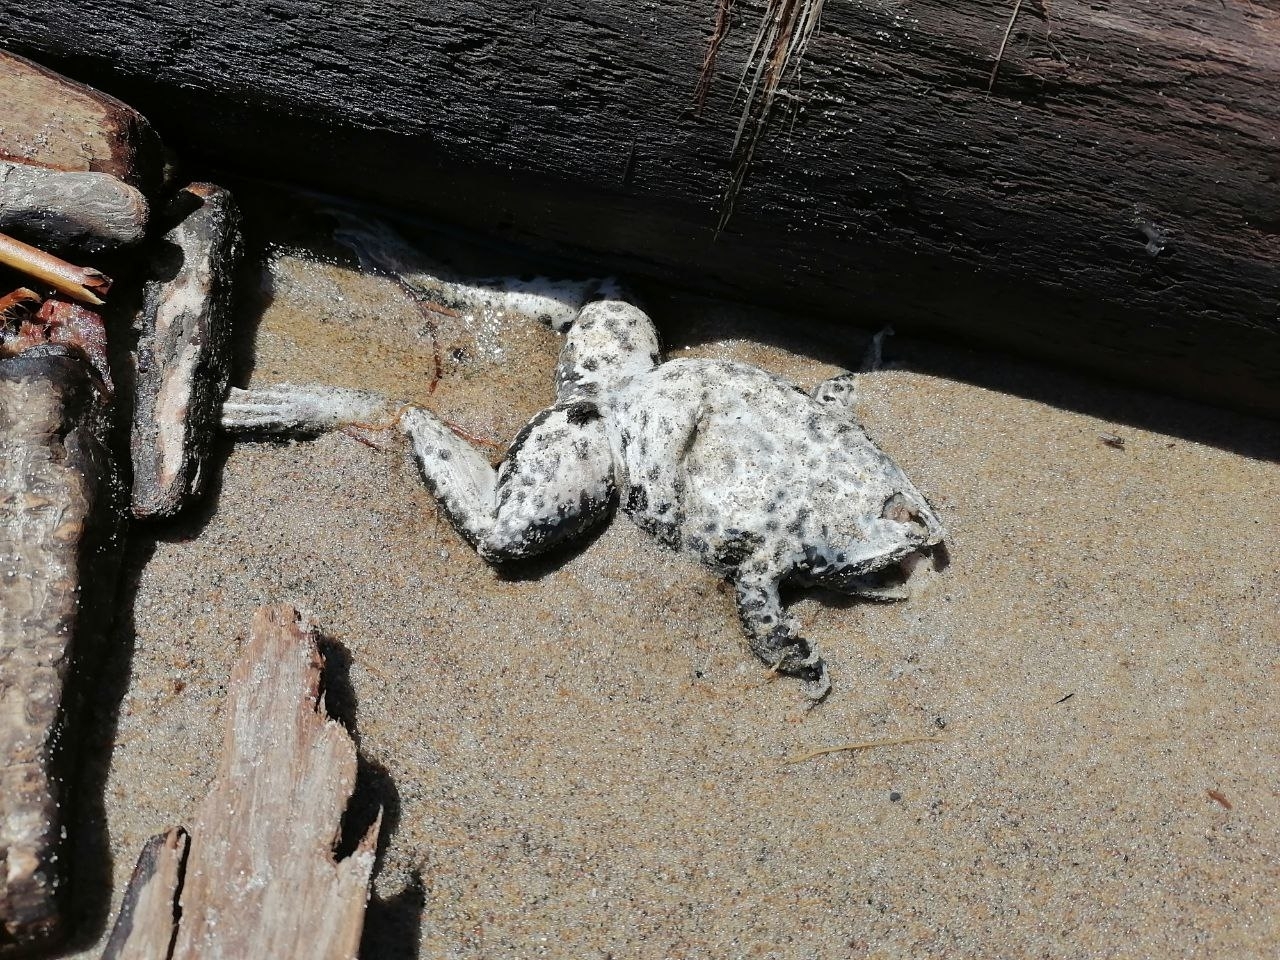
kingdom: Animalia
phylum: Chordata
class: Amphibia
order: Anura
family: Ranidae
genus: Pelophylax
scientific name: Pelophylax ridibundus
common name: Marsh frog
